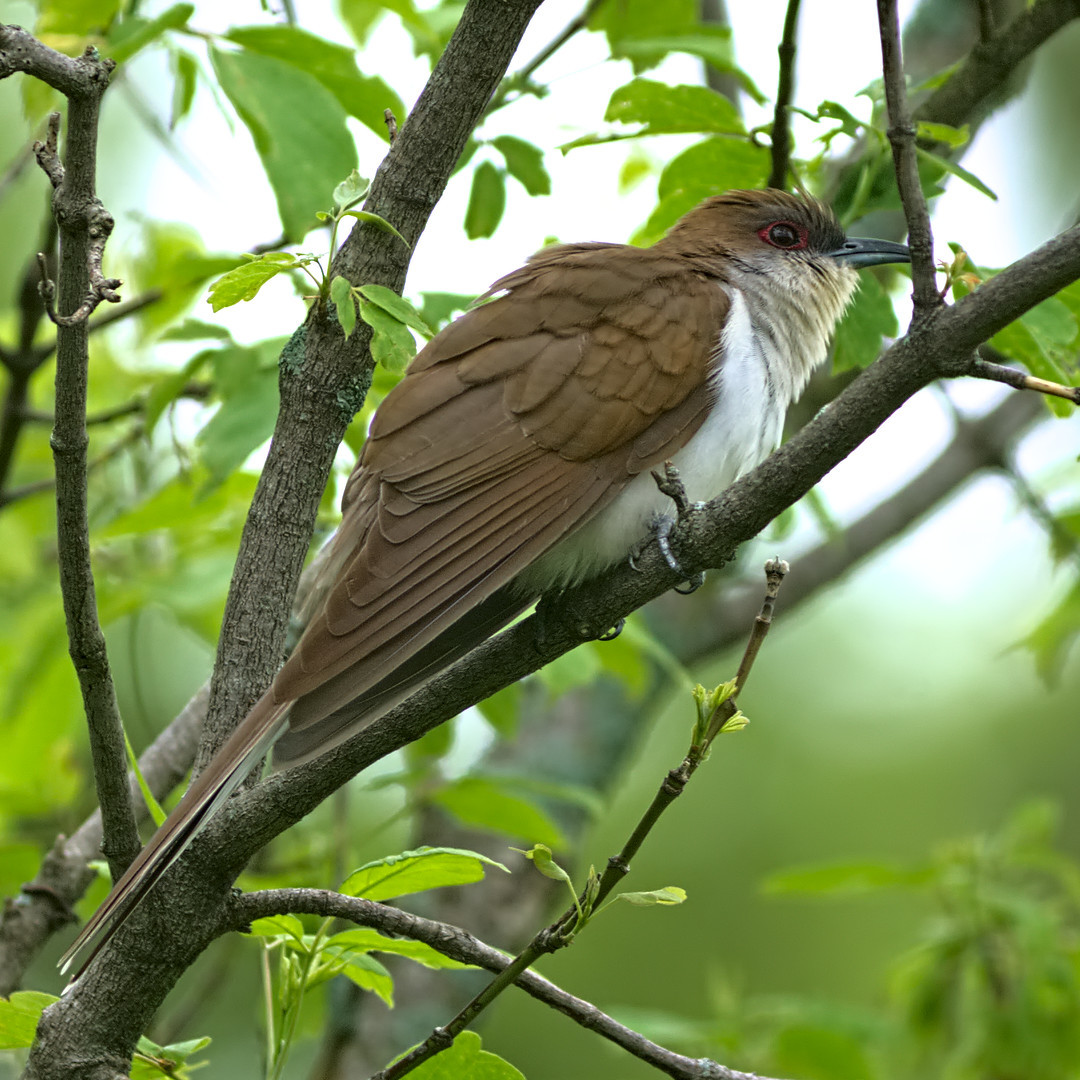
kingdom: Animalia
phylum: Chordata
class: Aves
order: Cuculiformes
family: Cuculidae
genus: Coccyzus
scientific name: Coccyzus erythropthalmus
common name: Black-billed cuckoo
